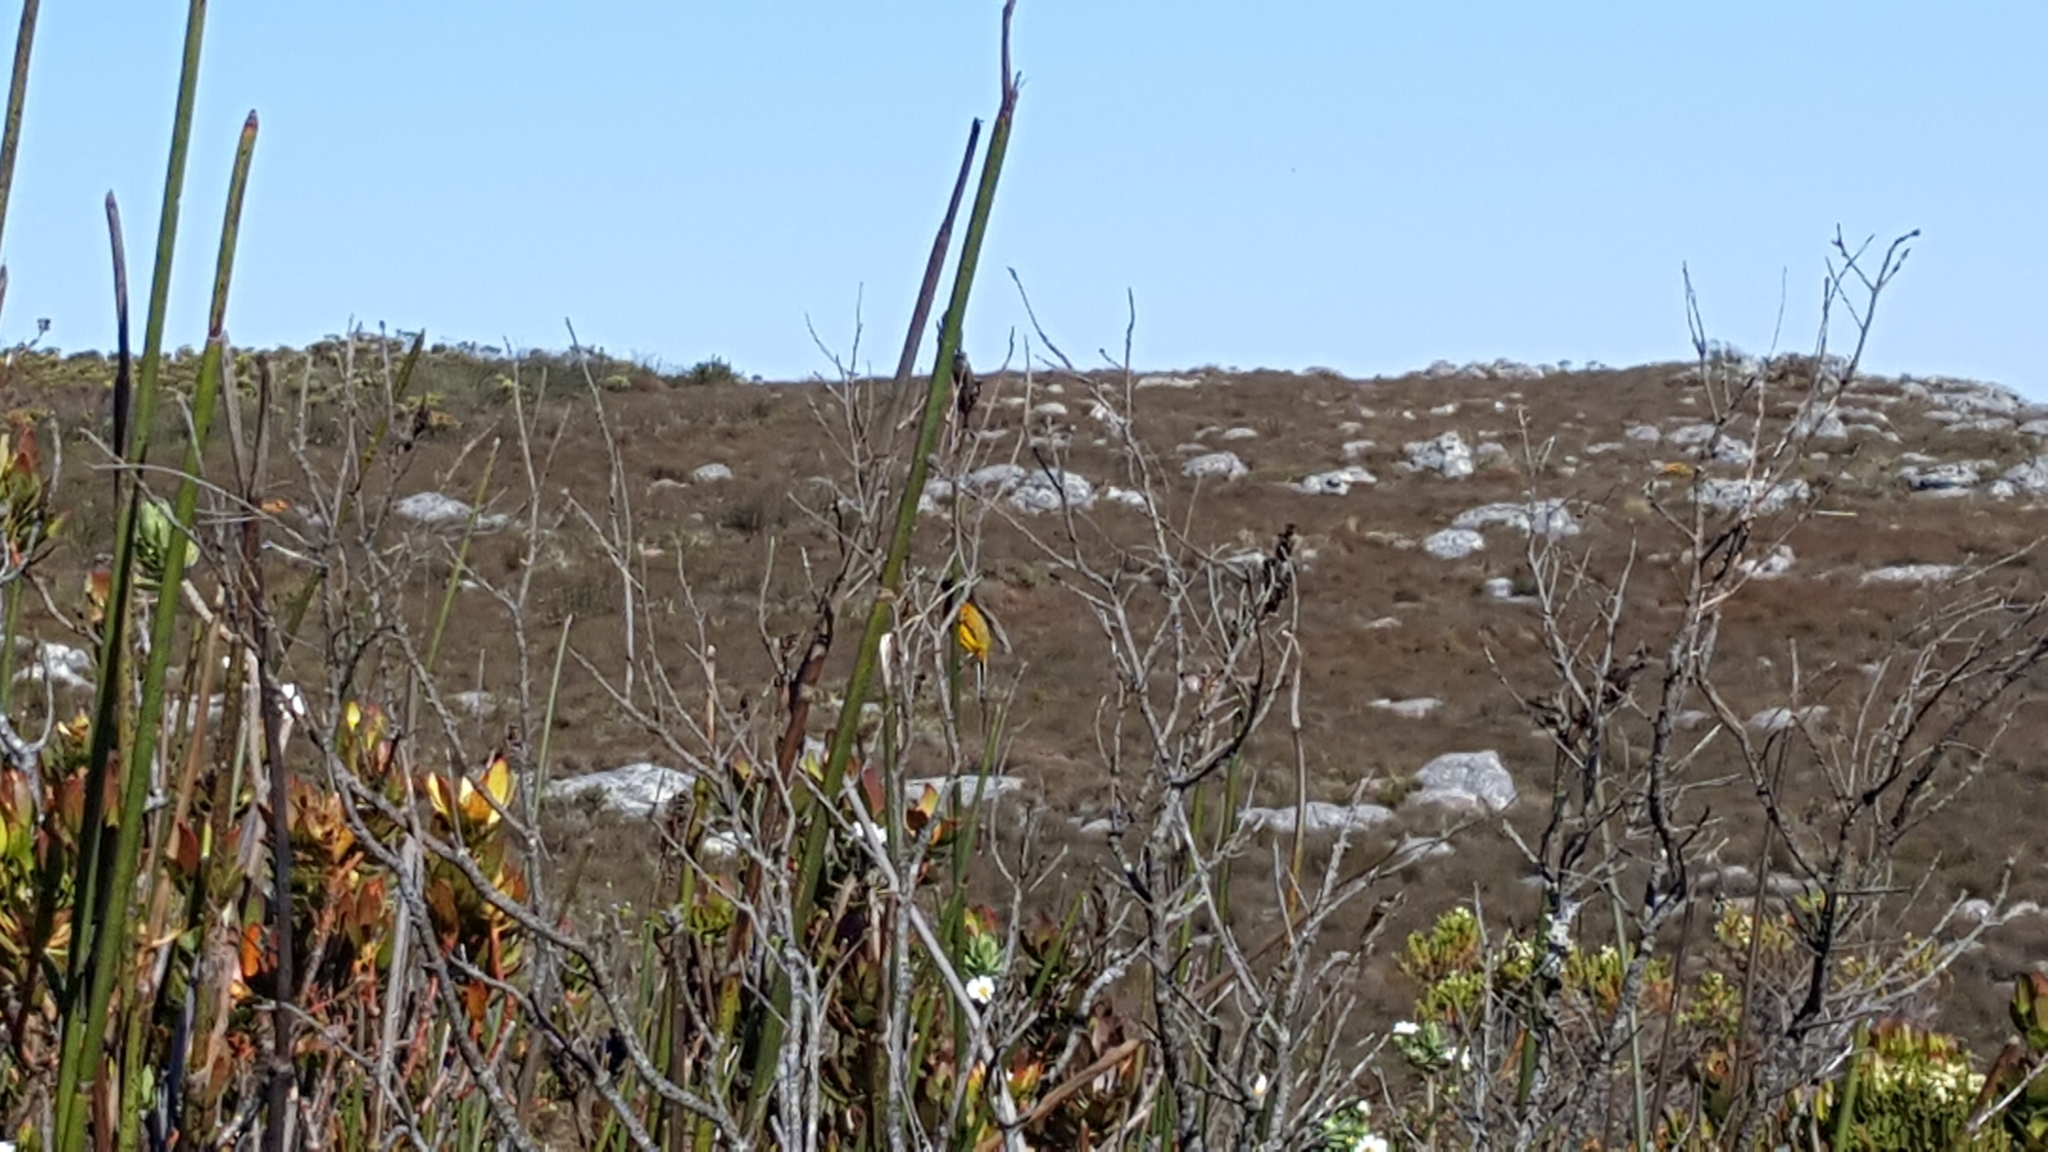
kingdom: Animalia
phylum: Chordata
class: Aves
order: Passeriformes
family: Nectariniidae
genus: Anthobaphes
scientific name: Anthobaphes violacea
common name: Orange-breasted sunbird
